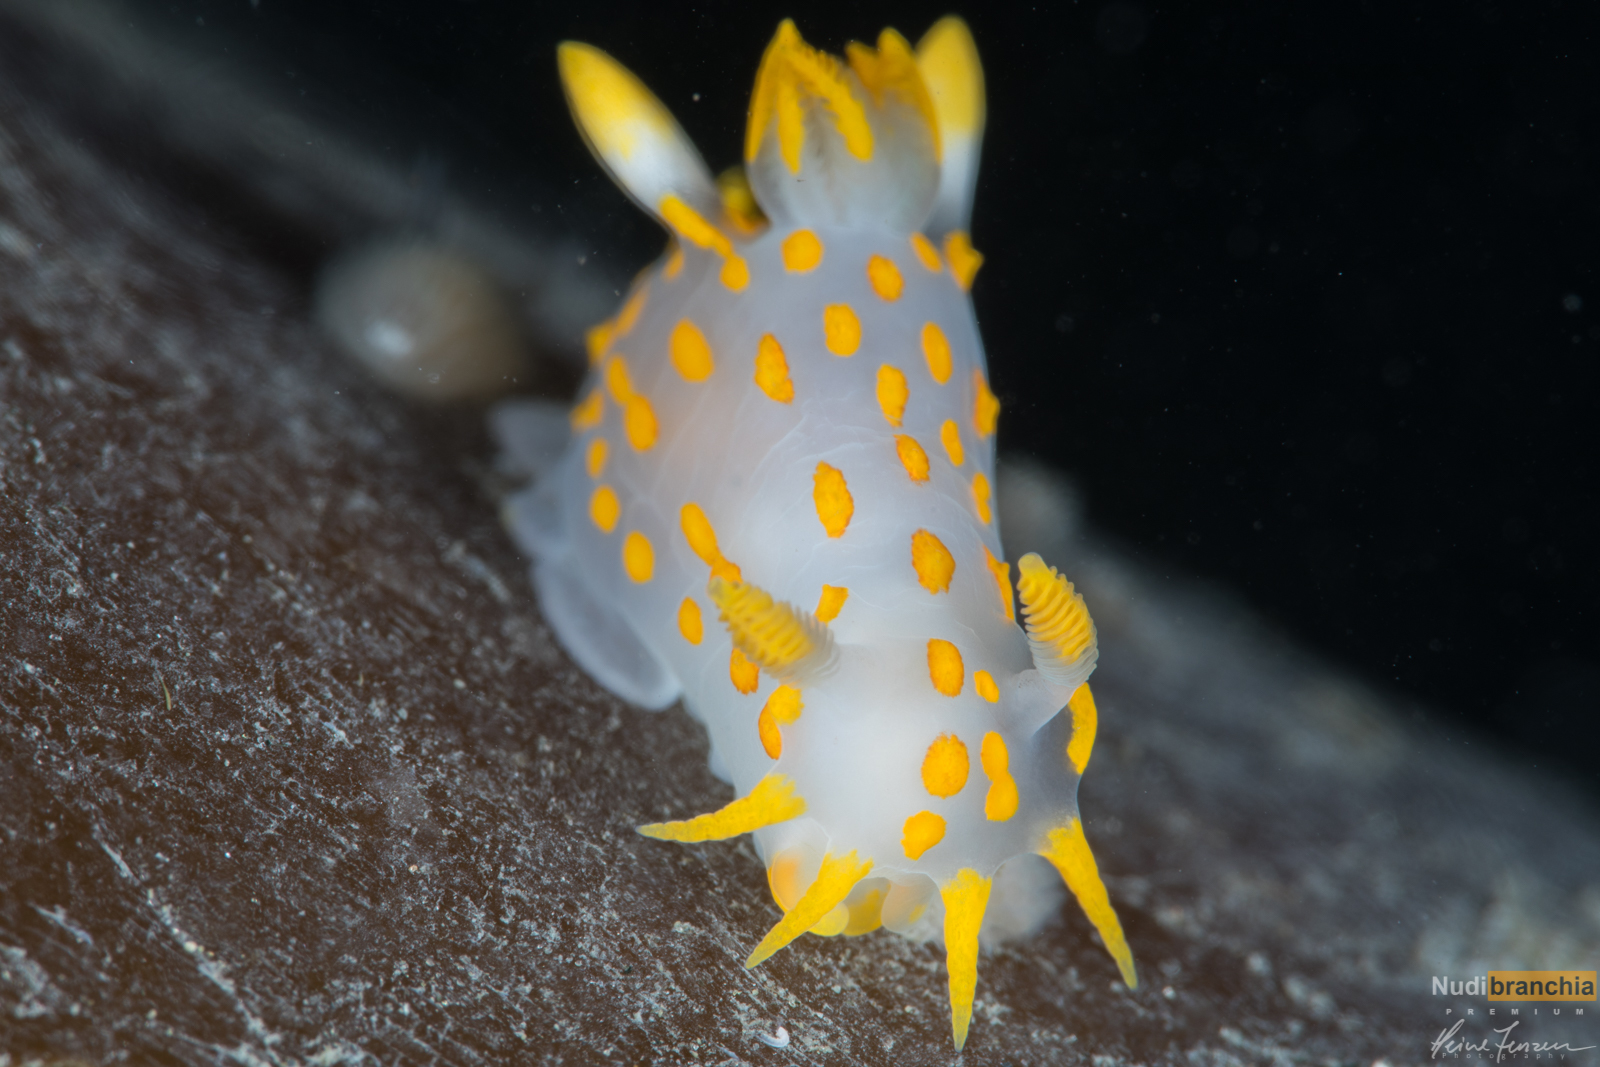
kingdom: Animalia
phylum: Mollusca
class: Gastropoda
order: Nudibranchia
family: Polyceridae
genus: Polycera
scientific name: Polycera quadrilineata
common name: Four-striped polycera
